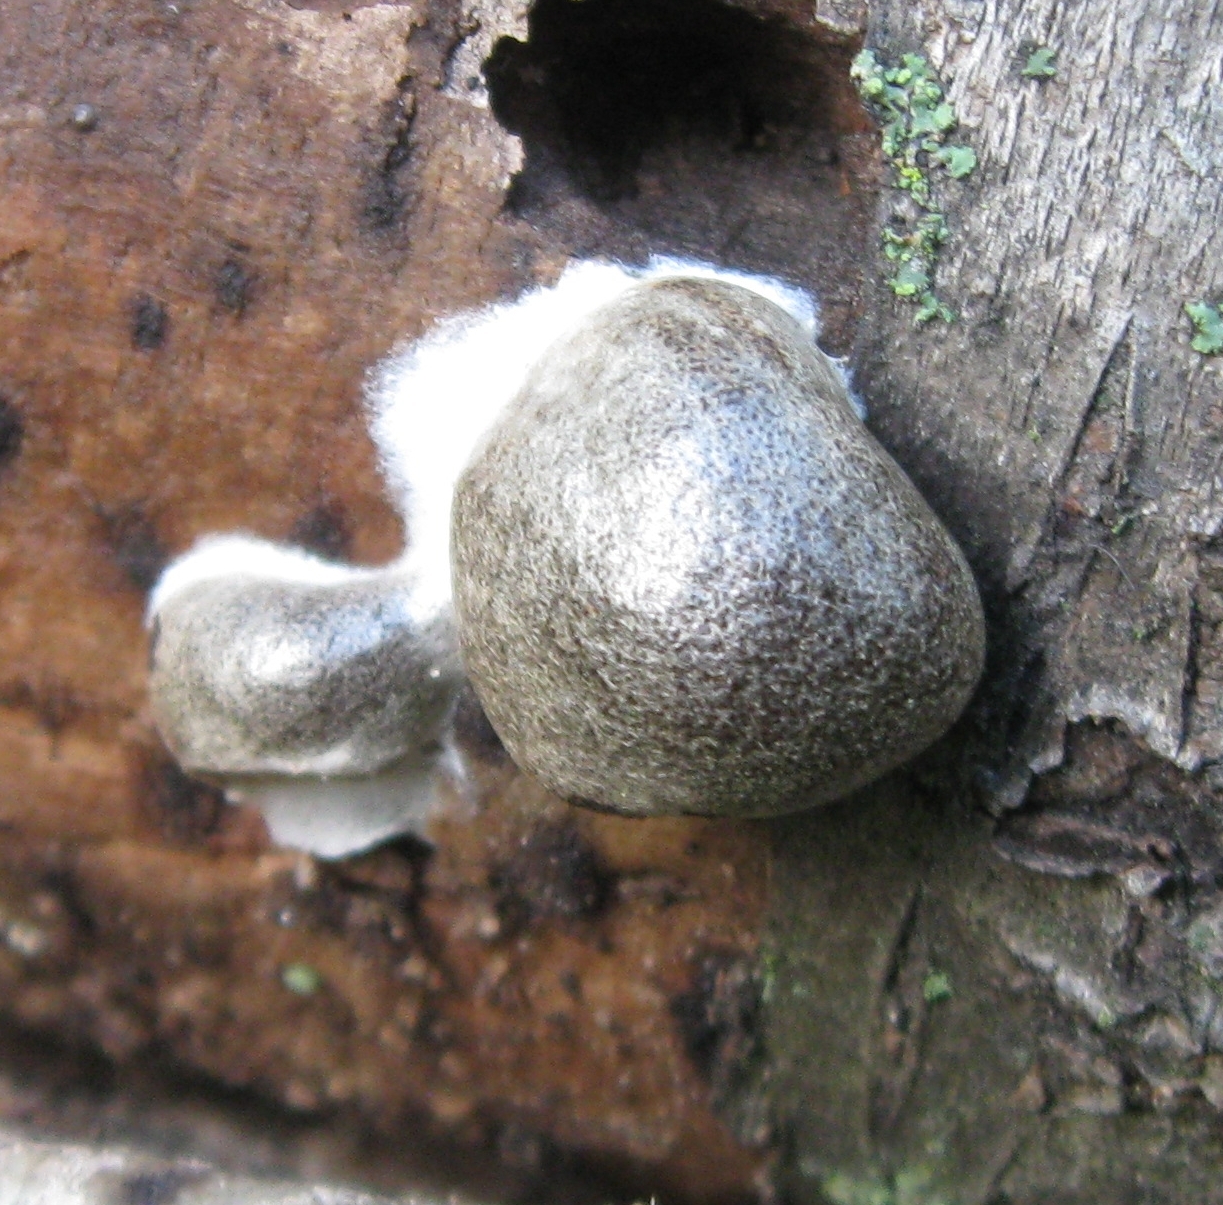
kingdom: Protozoa
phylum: Mycetozoa
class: Myxomycetes
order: Cribrariales
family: Tubiferaceae
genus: Reticularia
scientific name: Reticularia lycoperdon
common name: False puffball
